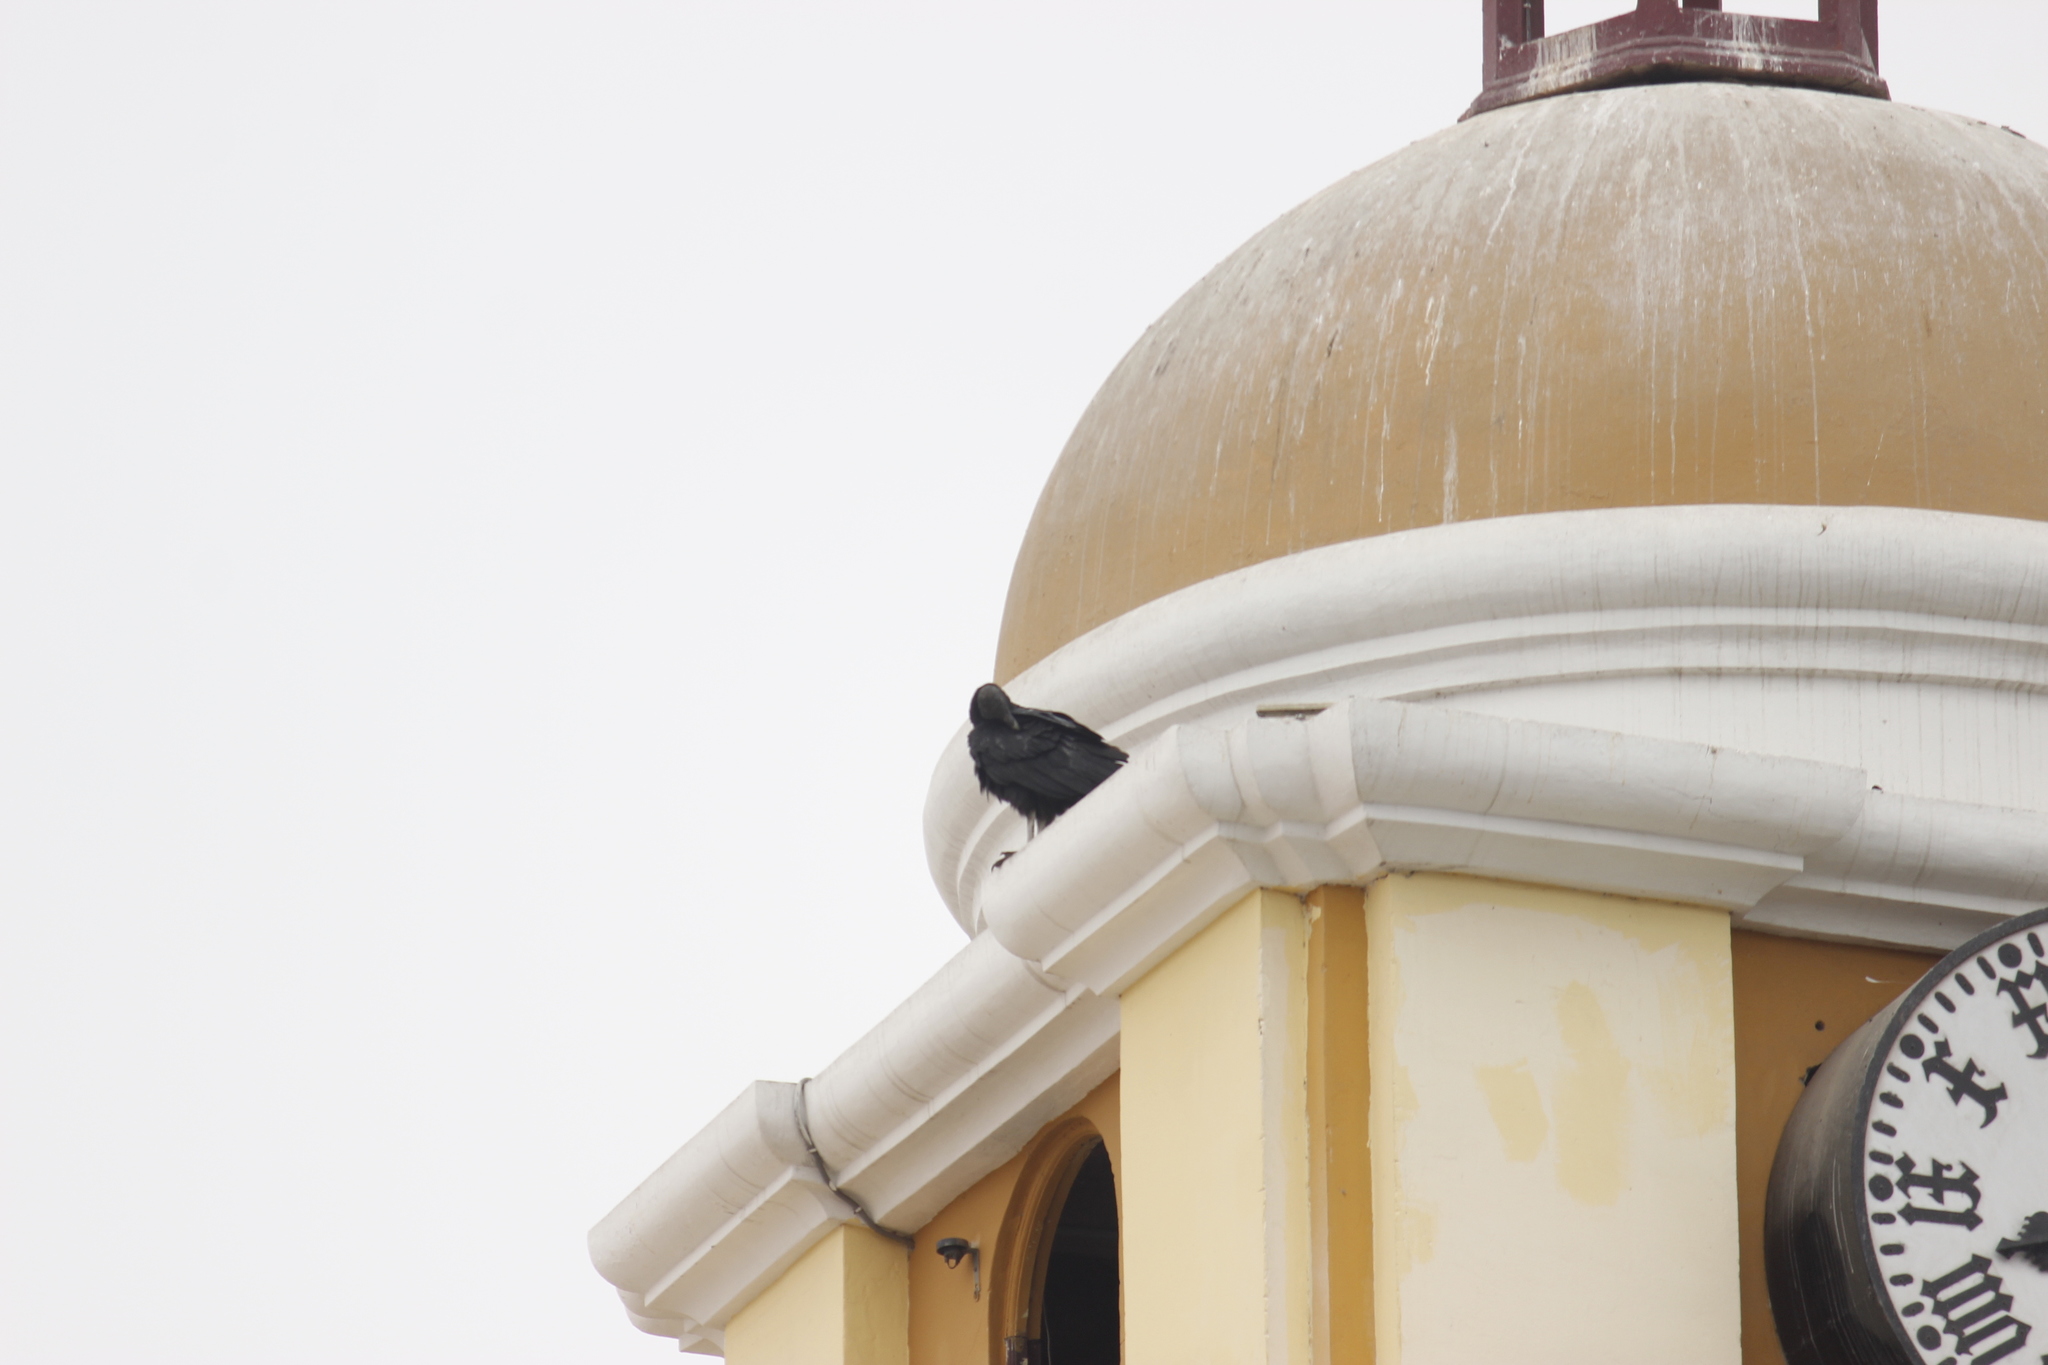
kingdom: Animalia
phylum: Chordata
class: Aves
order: Accipitriformes
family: Cathartidae
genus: Coragyps
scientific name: Coragyps atratus
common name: Black vulture
